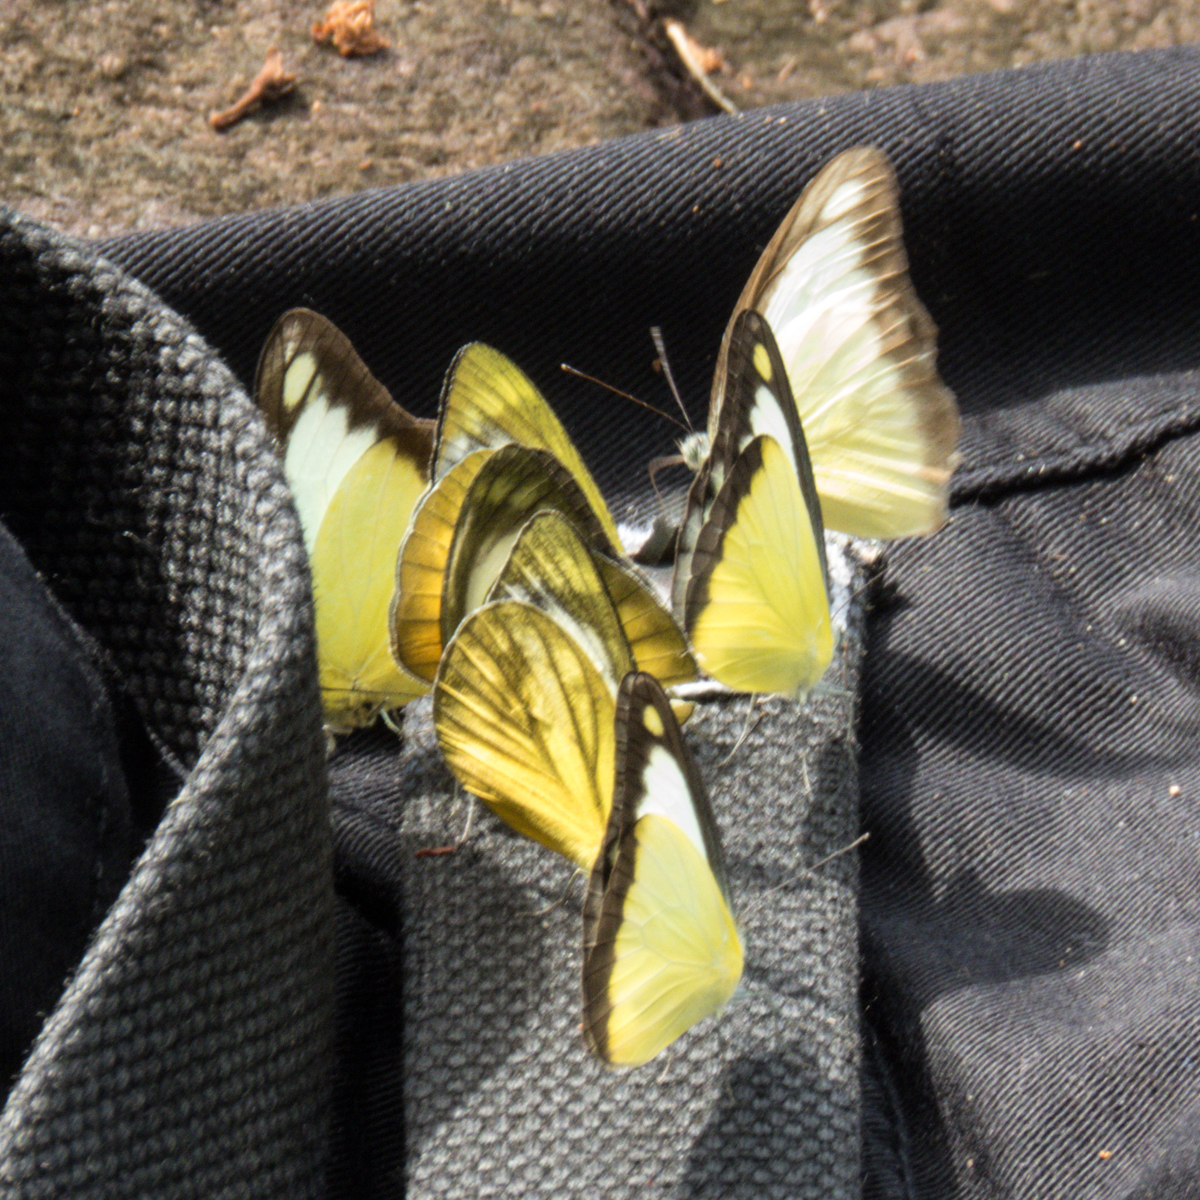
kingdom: Animalia
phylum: Arthropoda
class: Insecta
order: Lepidoptera
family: Pieridae
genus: Cepora
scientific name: Cepora nadina
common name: Lesser gull
